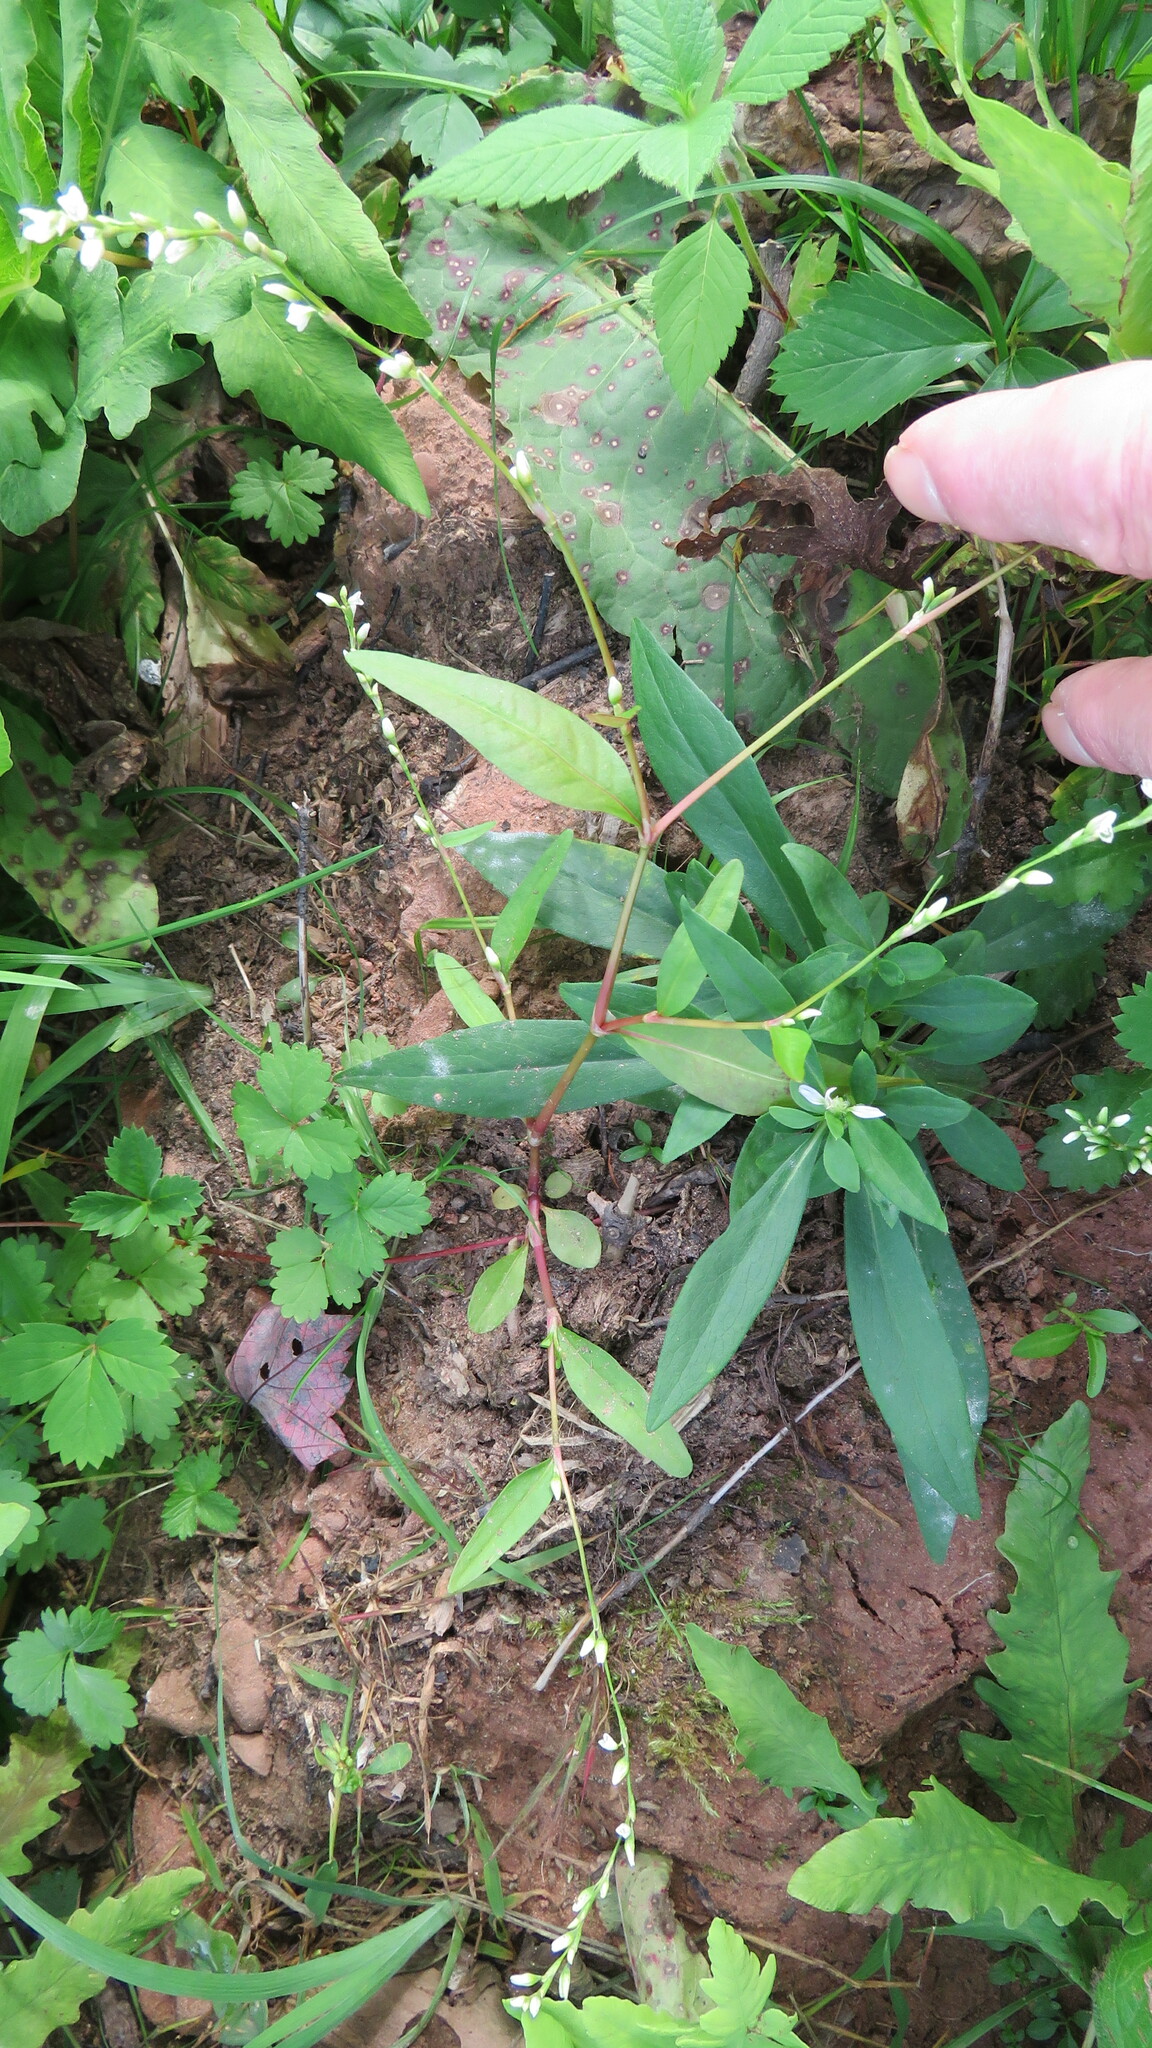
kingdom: Plantae
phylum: Tracheophyta
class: Magnoliopsida
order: Caryophyllales
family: Polygonaceae
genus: Persicaria
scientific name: Persicaria punctata
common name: Dotted smartweed
